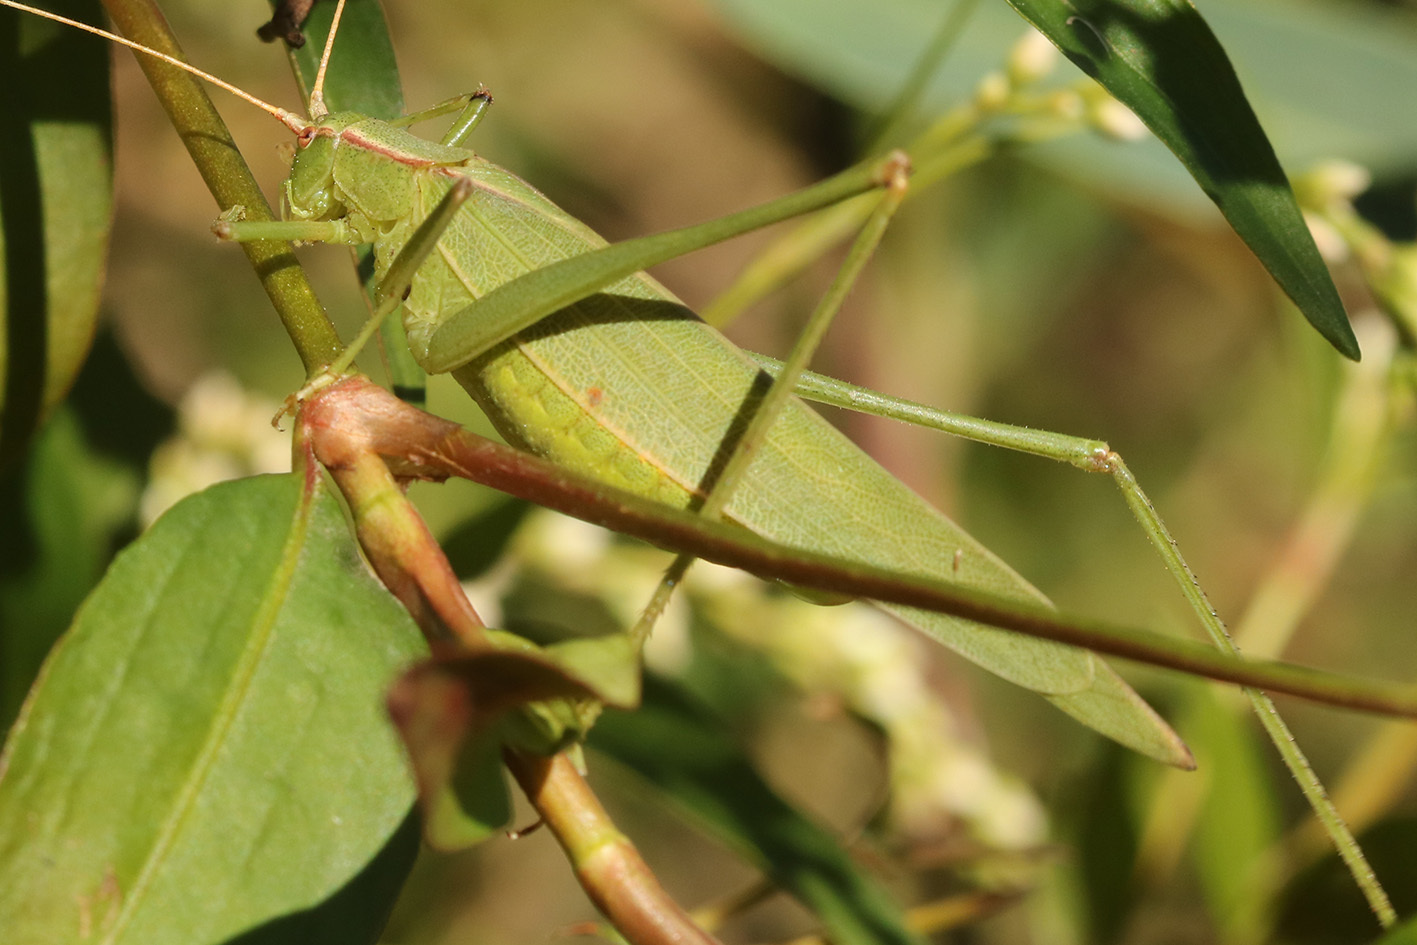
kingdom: Animalia
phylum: Arthropoda
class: Insecta
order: Orthoptera
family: Tettigoniidae
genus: Hyperophora
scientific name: Hyperophora major
